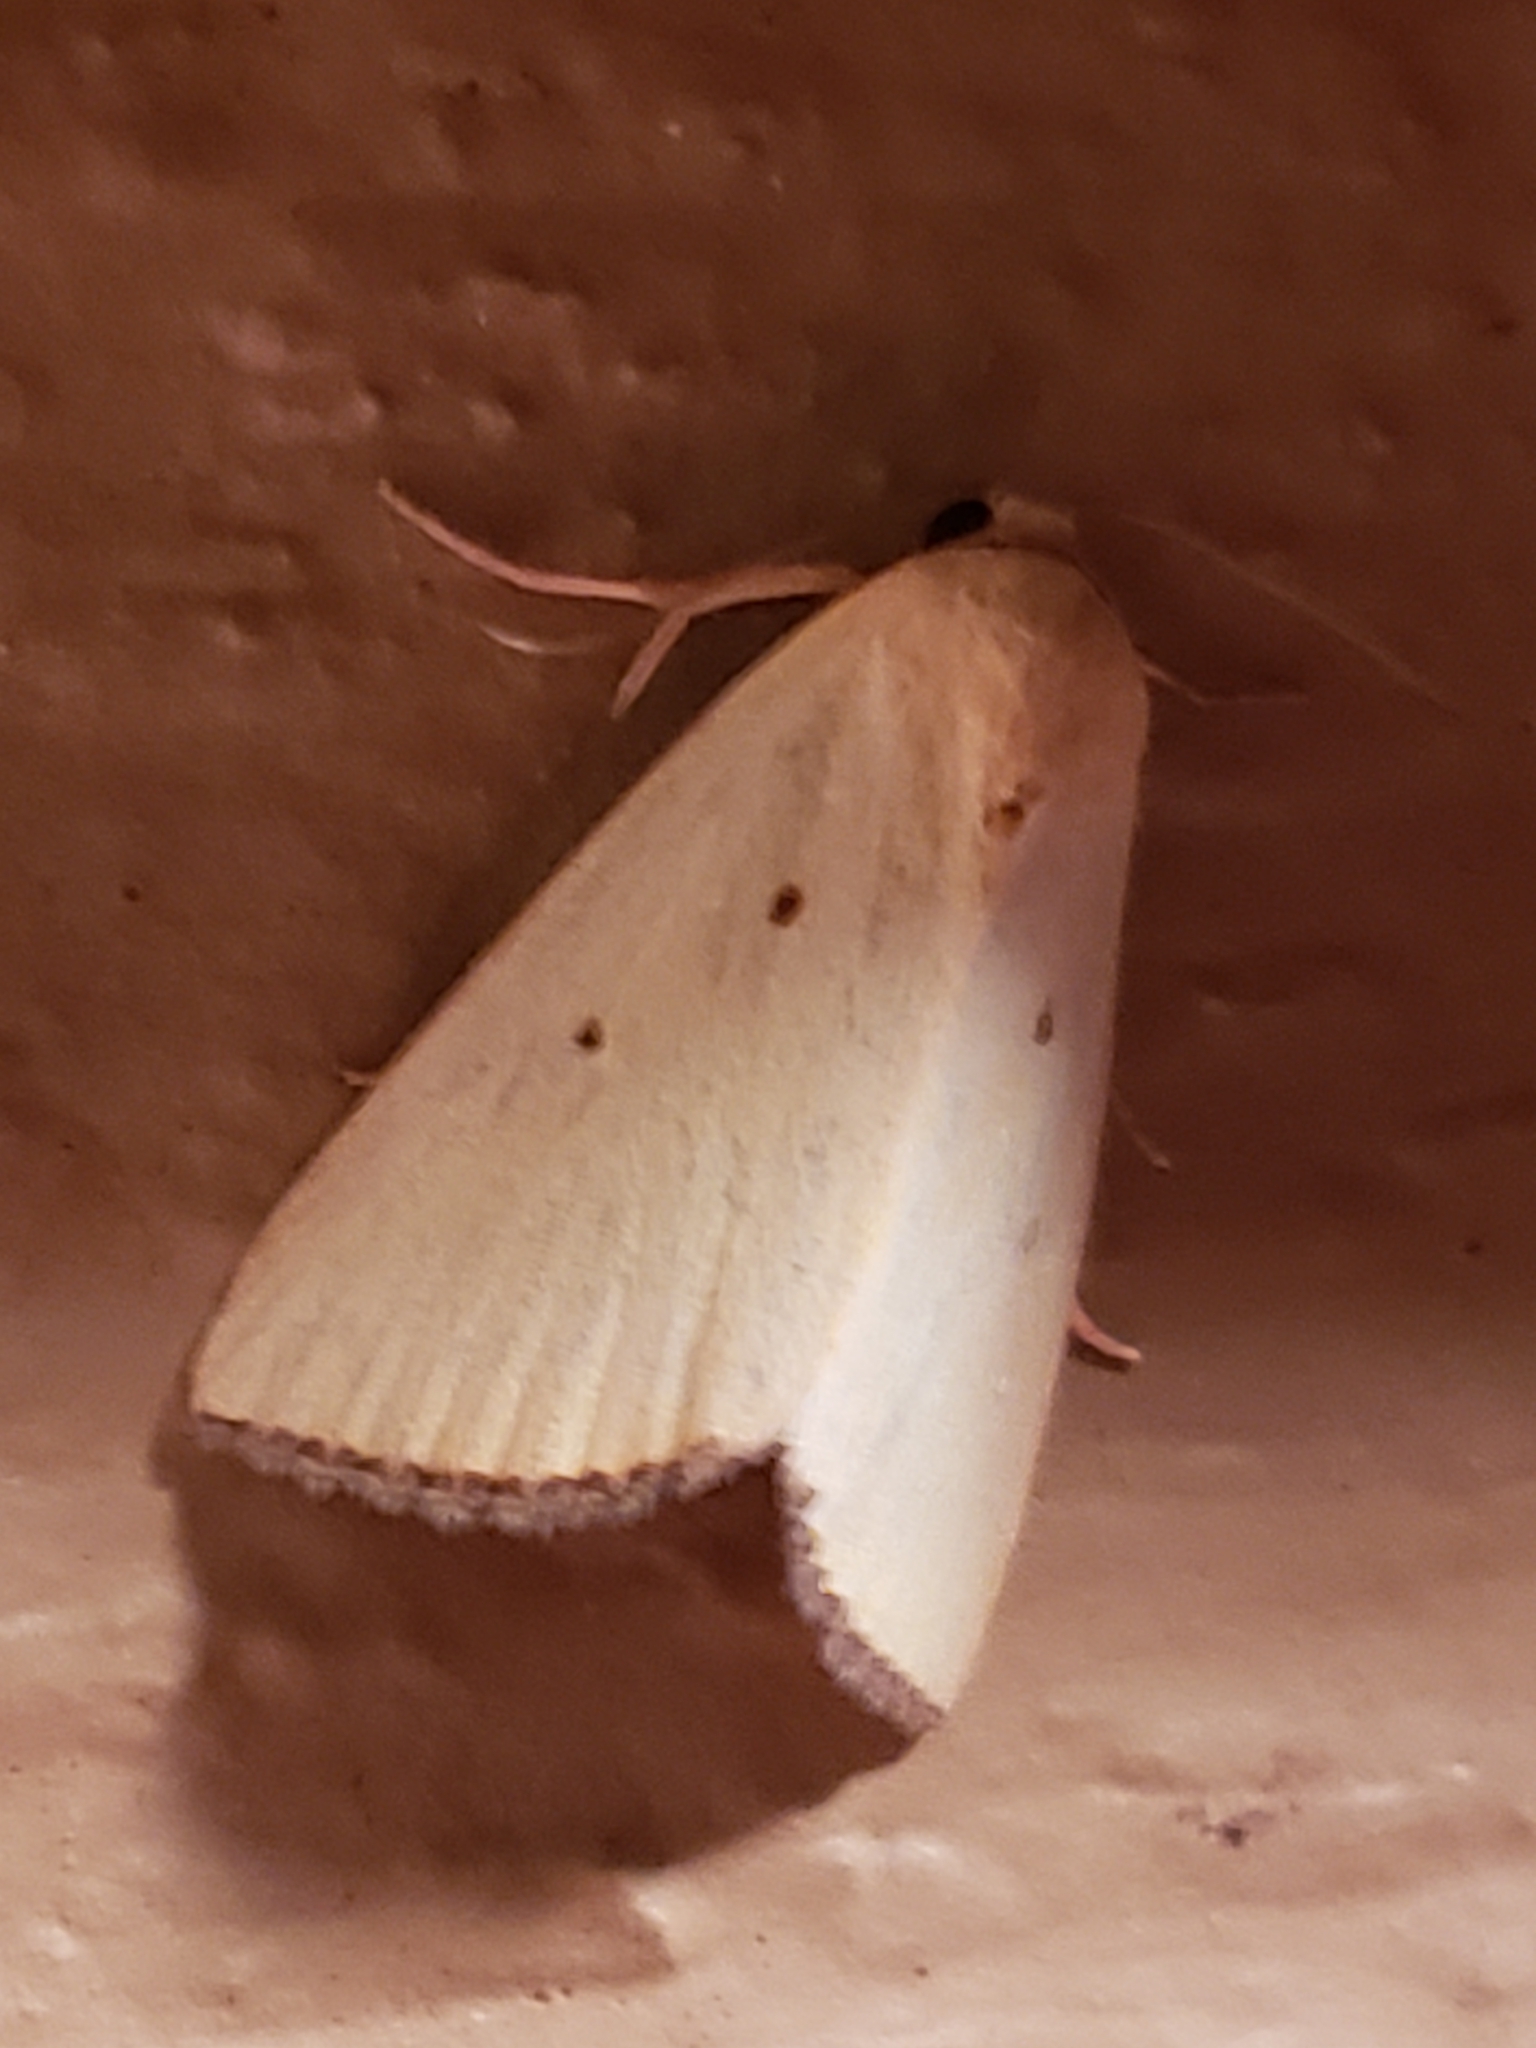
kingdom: Animalia
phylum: Arthropoda
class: Insecta
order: Lepidoptera
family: Noctuidae
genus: Marimatha
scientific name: Marimatha nigrofimbria
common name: Black-bordered lemon moth
